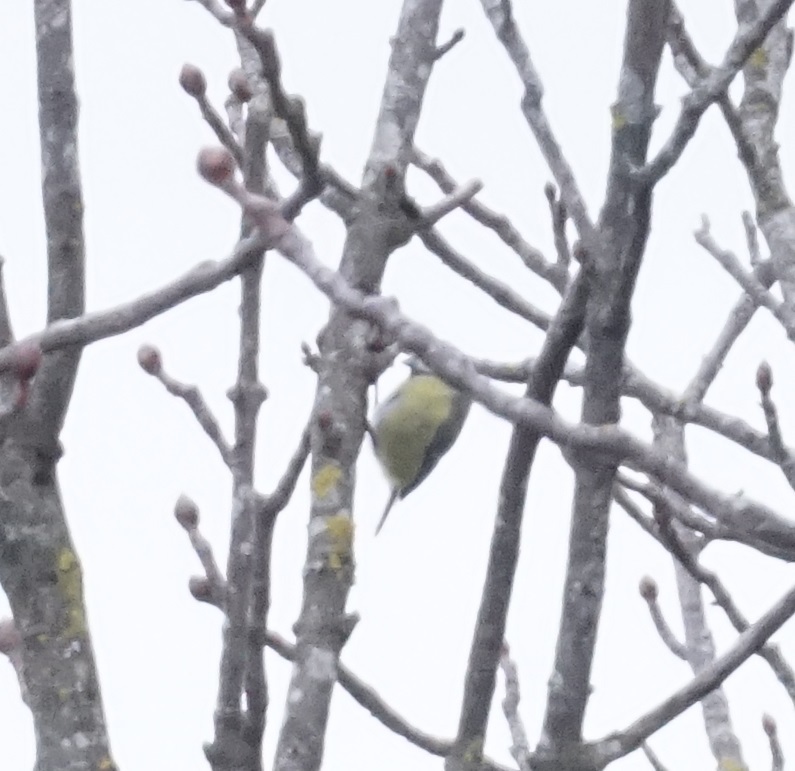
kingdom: Animalia
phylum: Chordata
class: Aves
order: Passeriformes
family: Paridae
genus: Cyanistes
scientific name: Cyanistes caeruleus
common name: Eurasian blue tit
